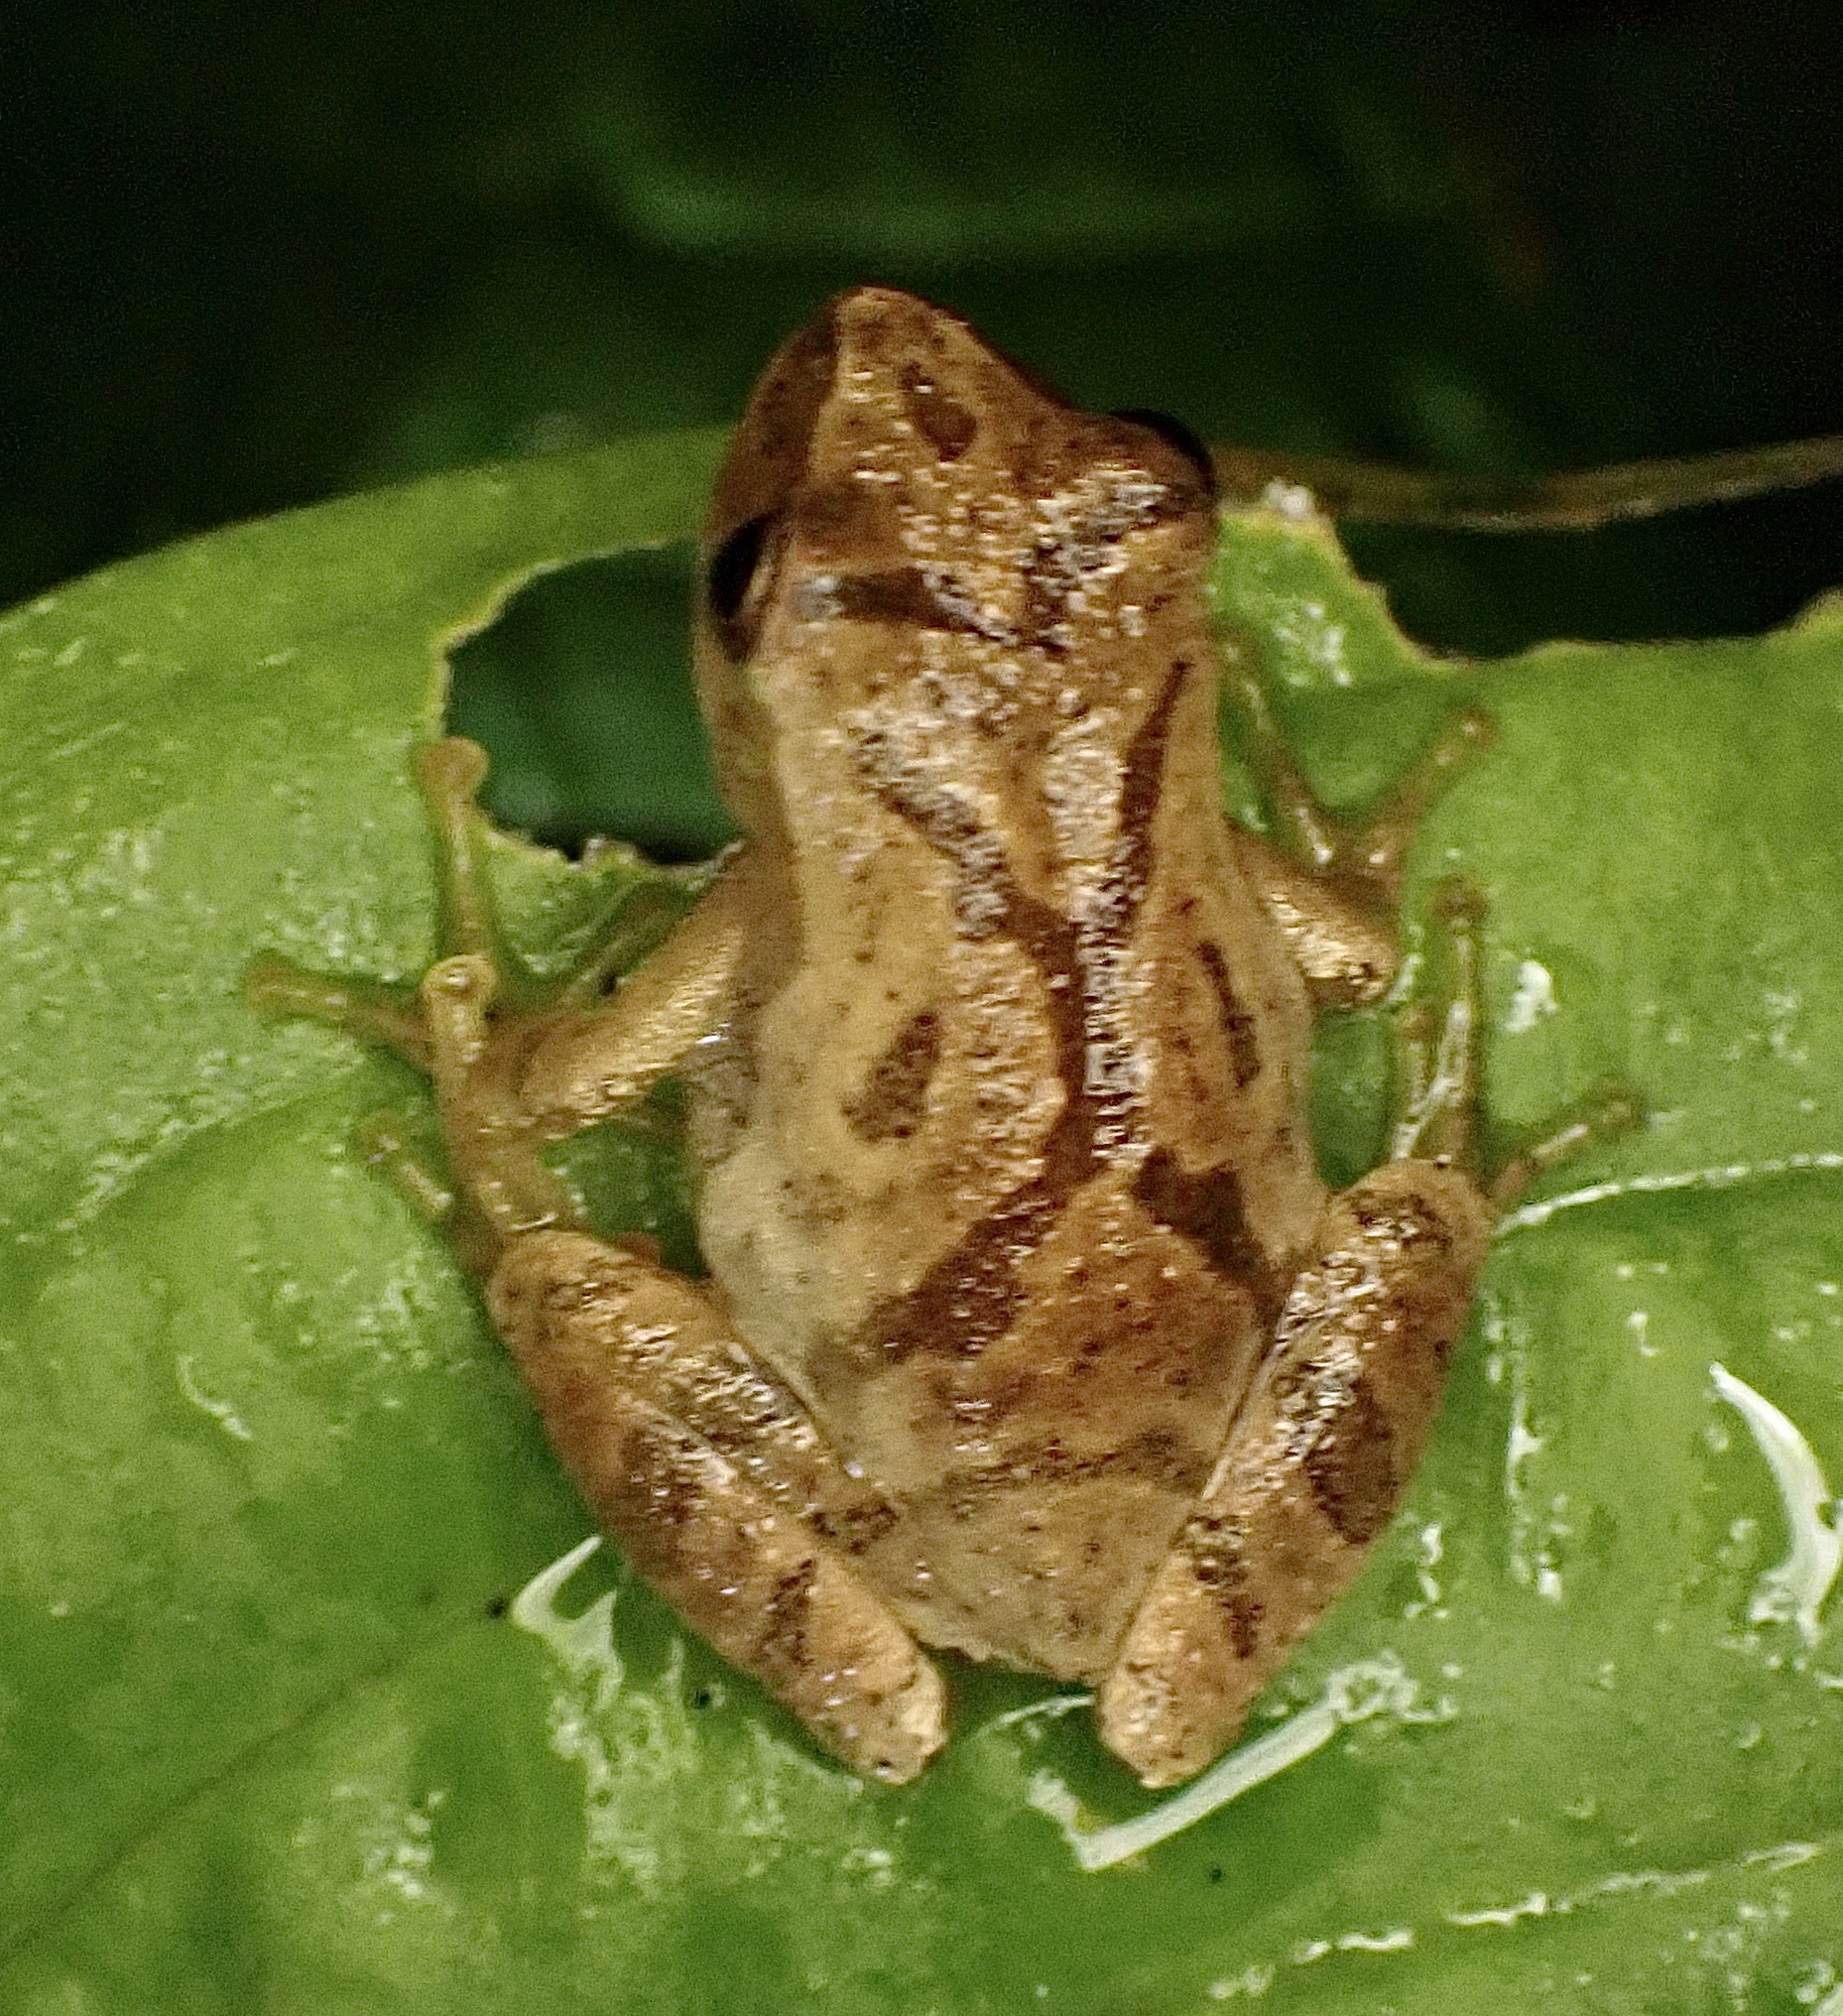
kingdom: Animalia
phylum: Chordata
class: Amphibia
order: Anura
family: Hylidae
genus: Pseudacris
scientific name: Pseudacris crucifer
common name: Spring peeper
